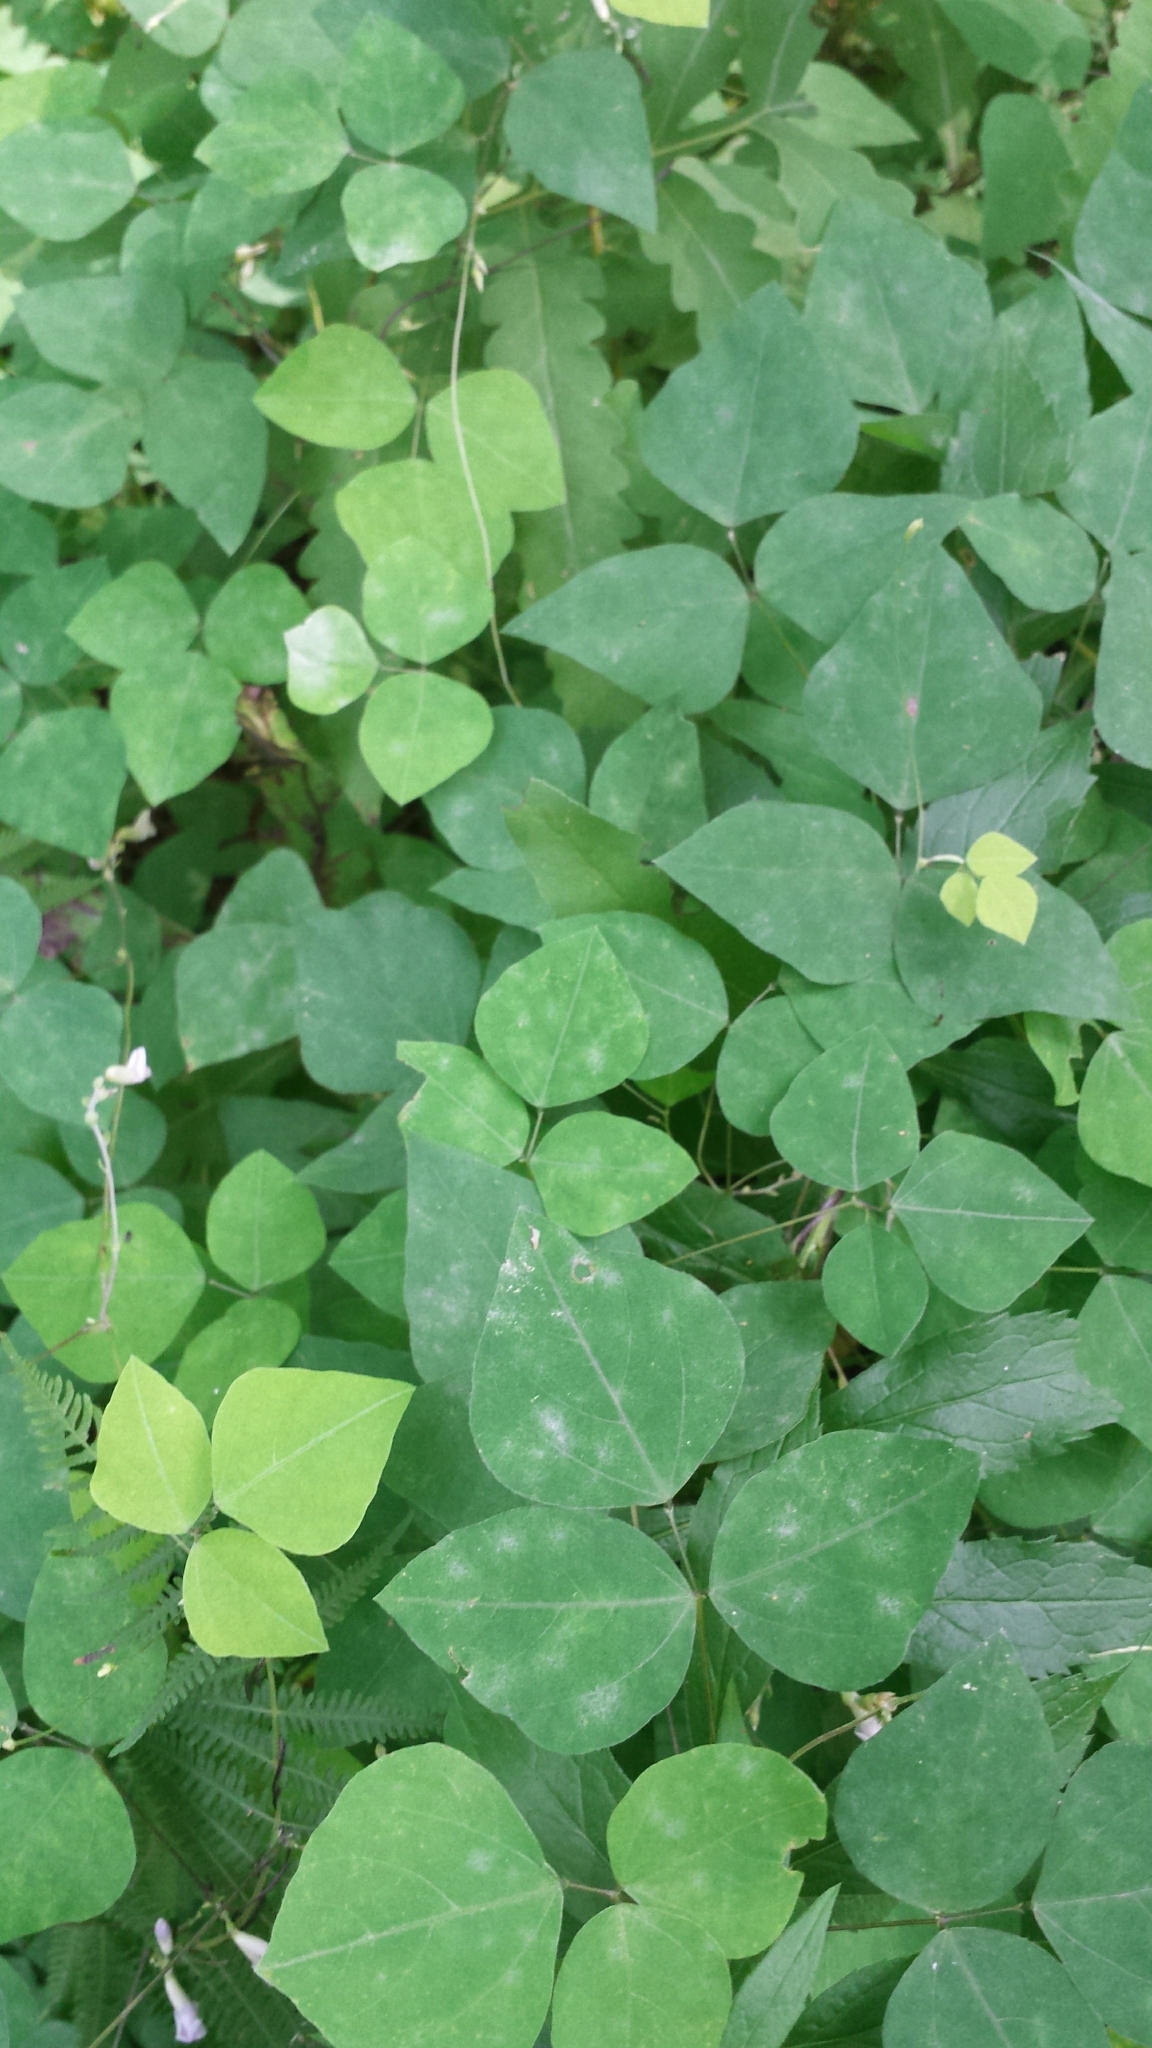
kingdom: Plantae
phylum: Tracheophyta
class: Magnoliopsida
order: Fabales
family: Fabaceae
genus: Amphicarpaea
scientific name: Amphicarpaea bracteata
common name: American hog peanut
